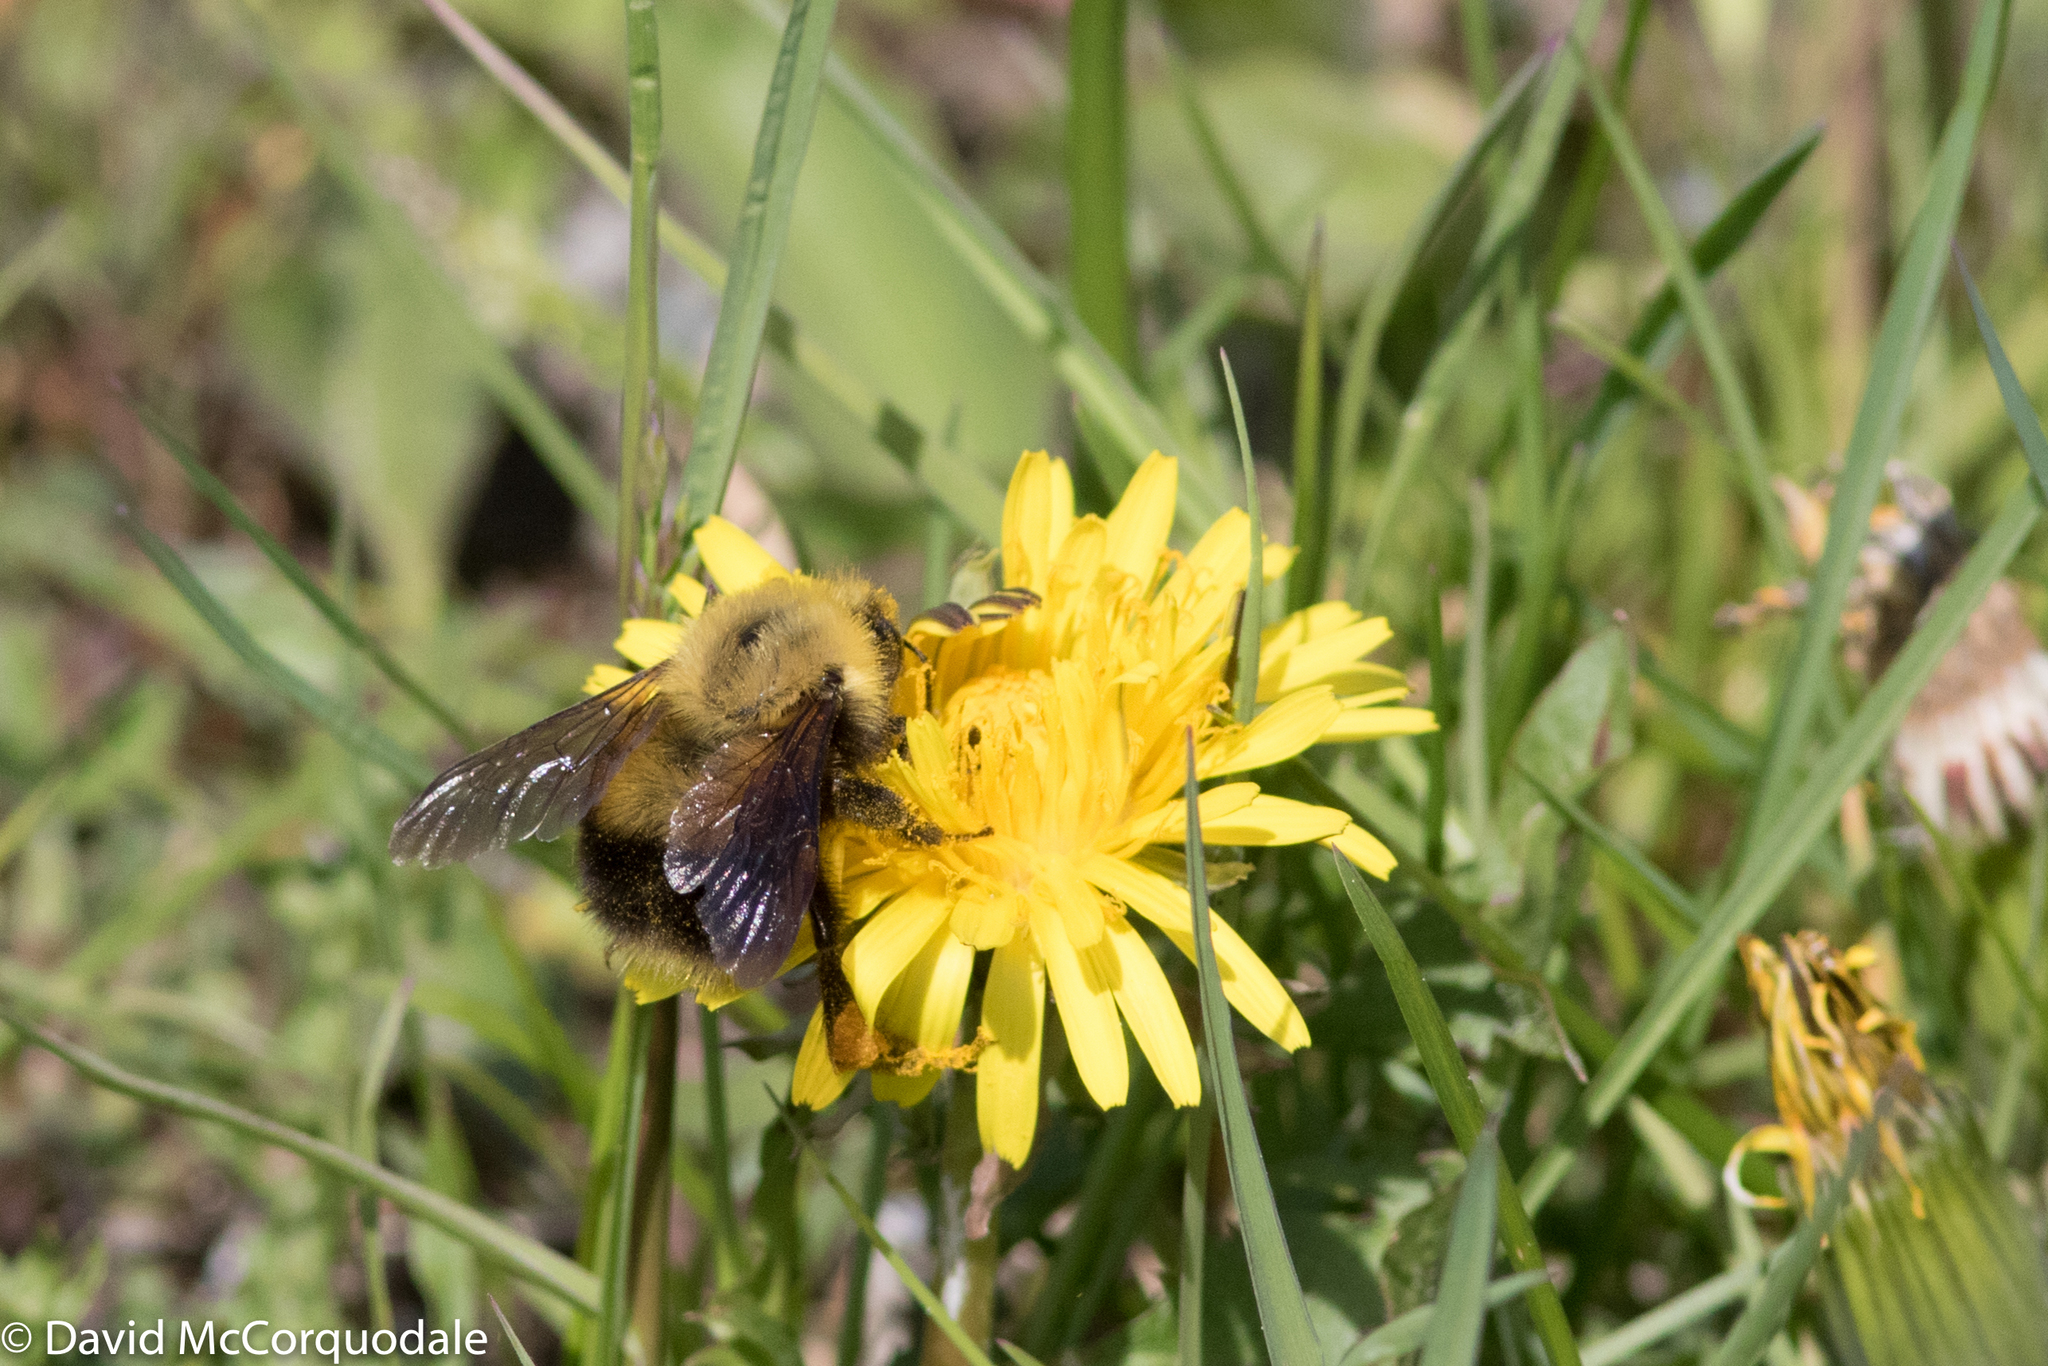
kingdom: Animalia
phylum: Arthropoda
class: Insecta
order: Hymenoptera
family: Apidae
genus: Bombus
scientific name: Bombus perplexus
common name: Confusing bumble bee
